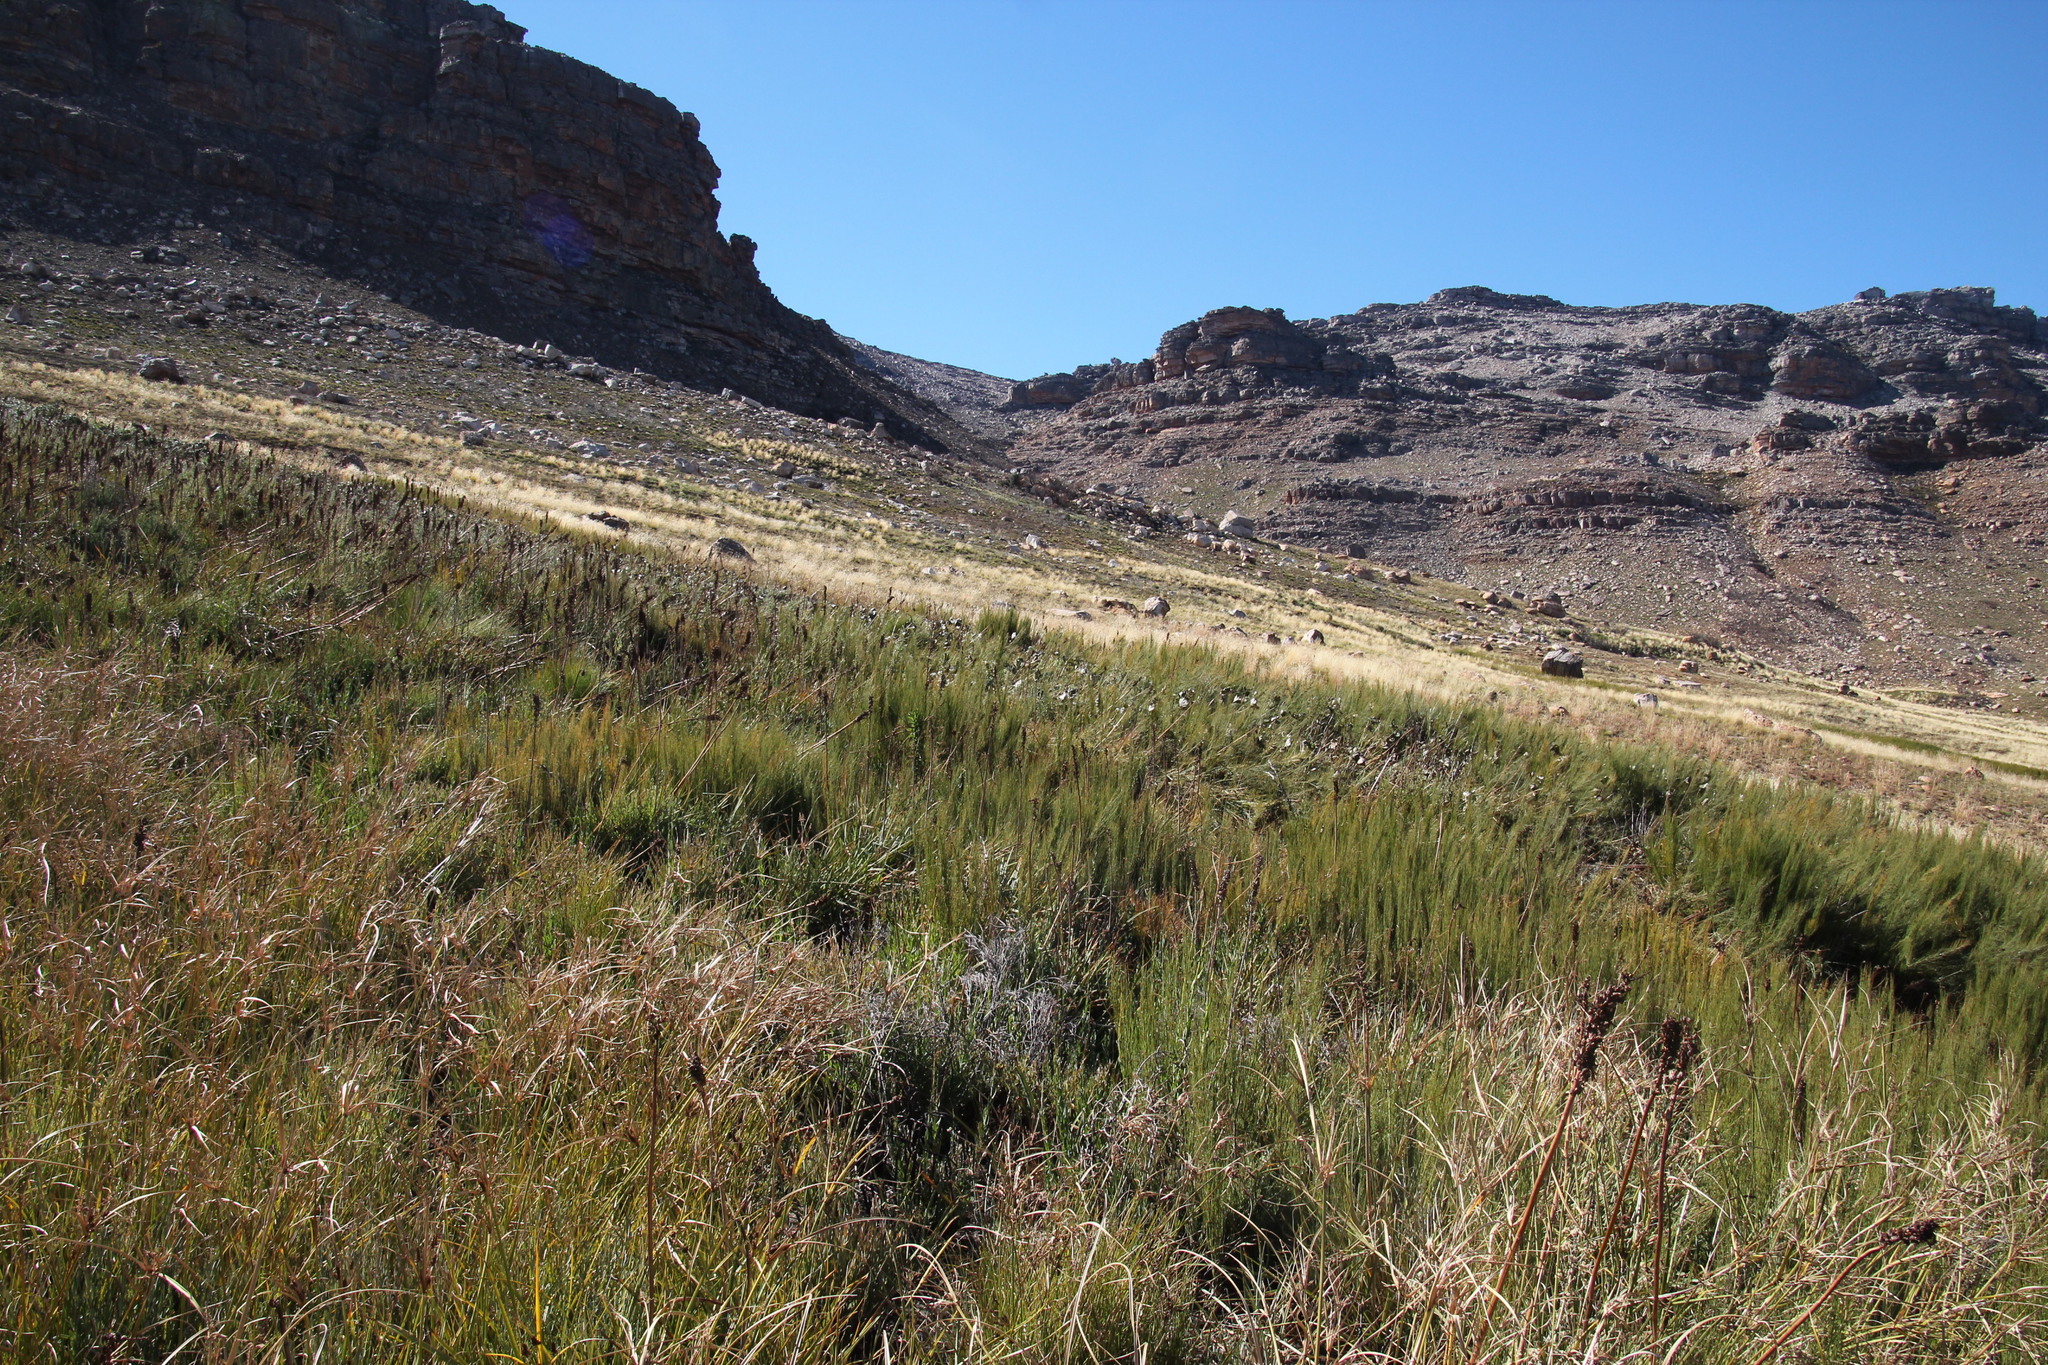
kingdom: Plantae
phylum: Tracheophyta
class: Magnoliopsida
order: Gunnerales
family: Gunneraceae
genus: Gunnera
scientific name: Gunnera perpensa
